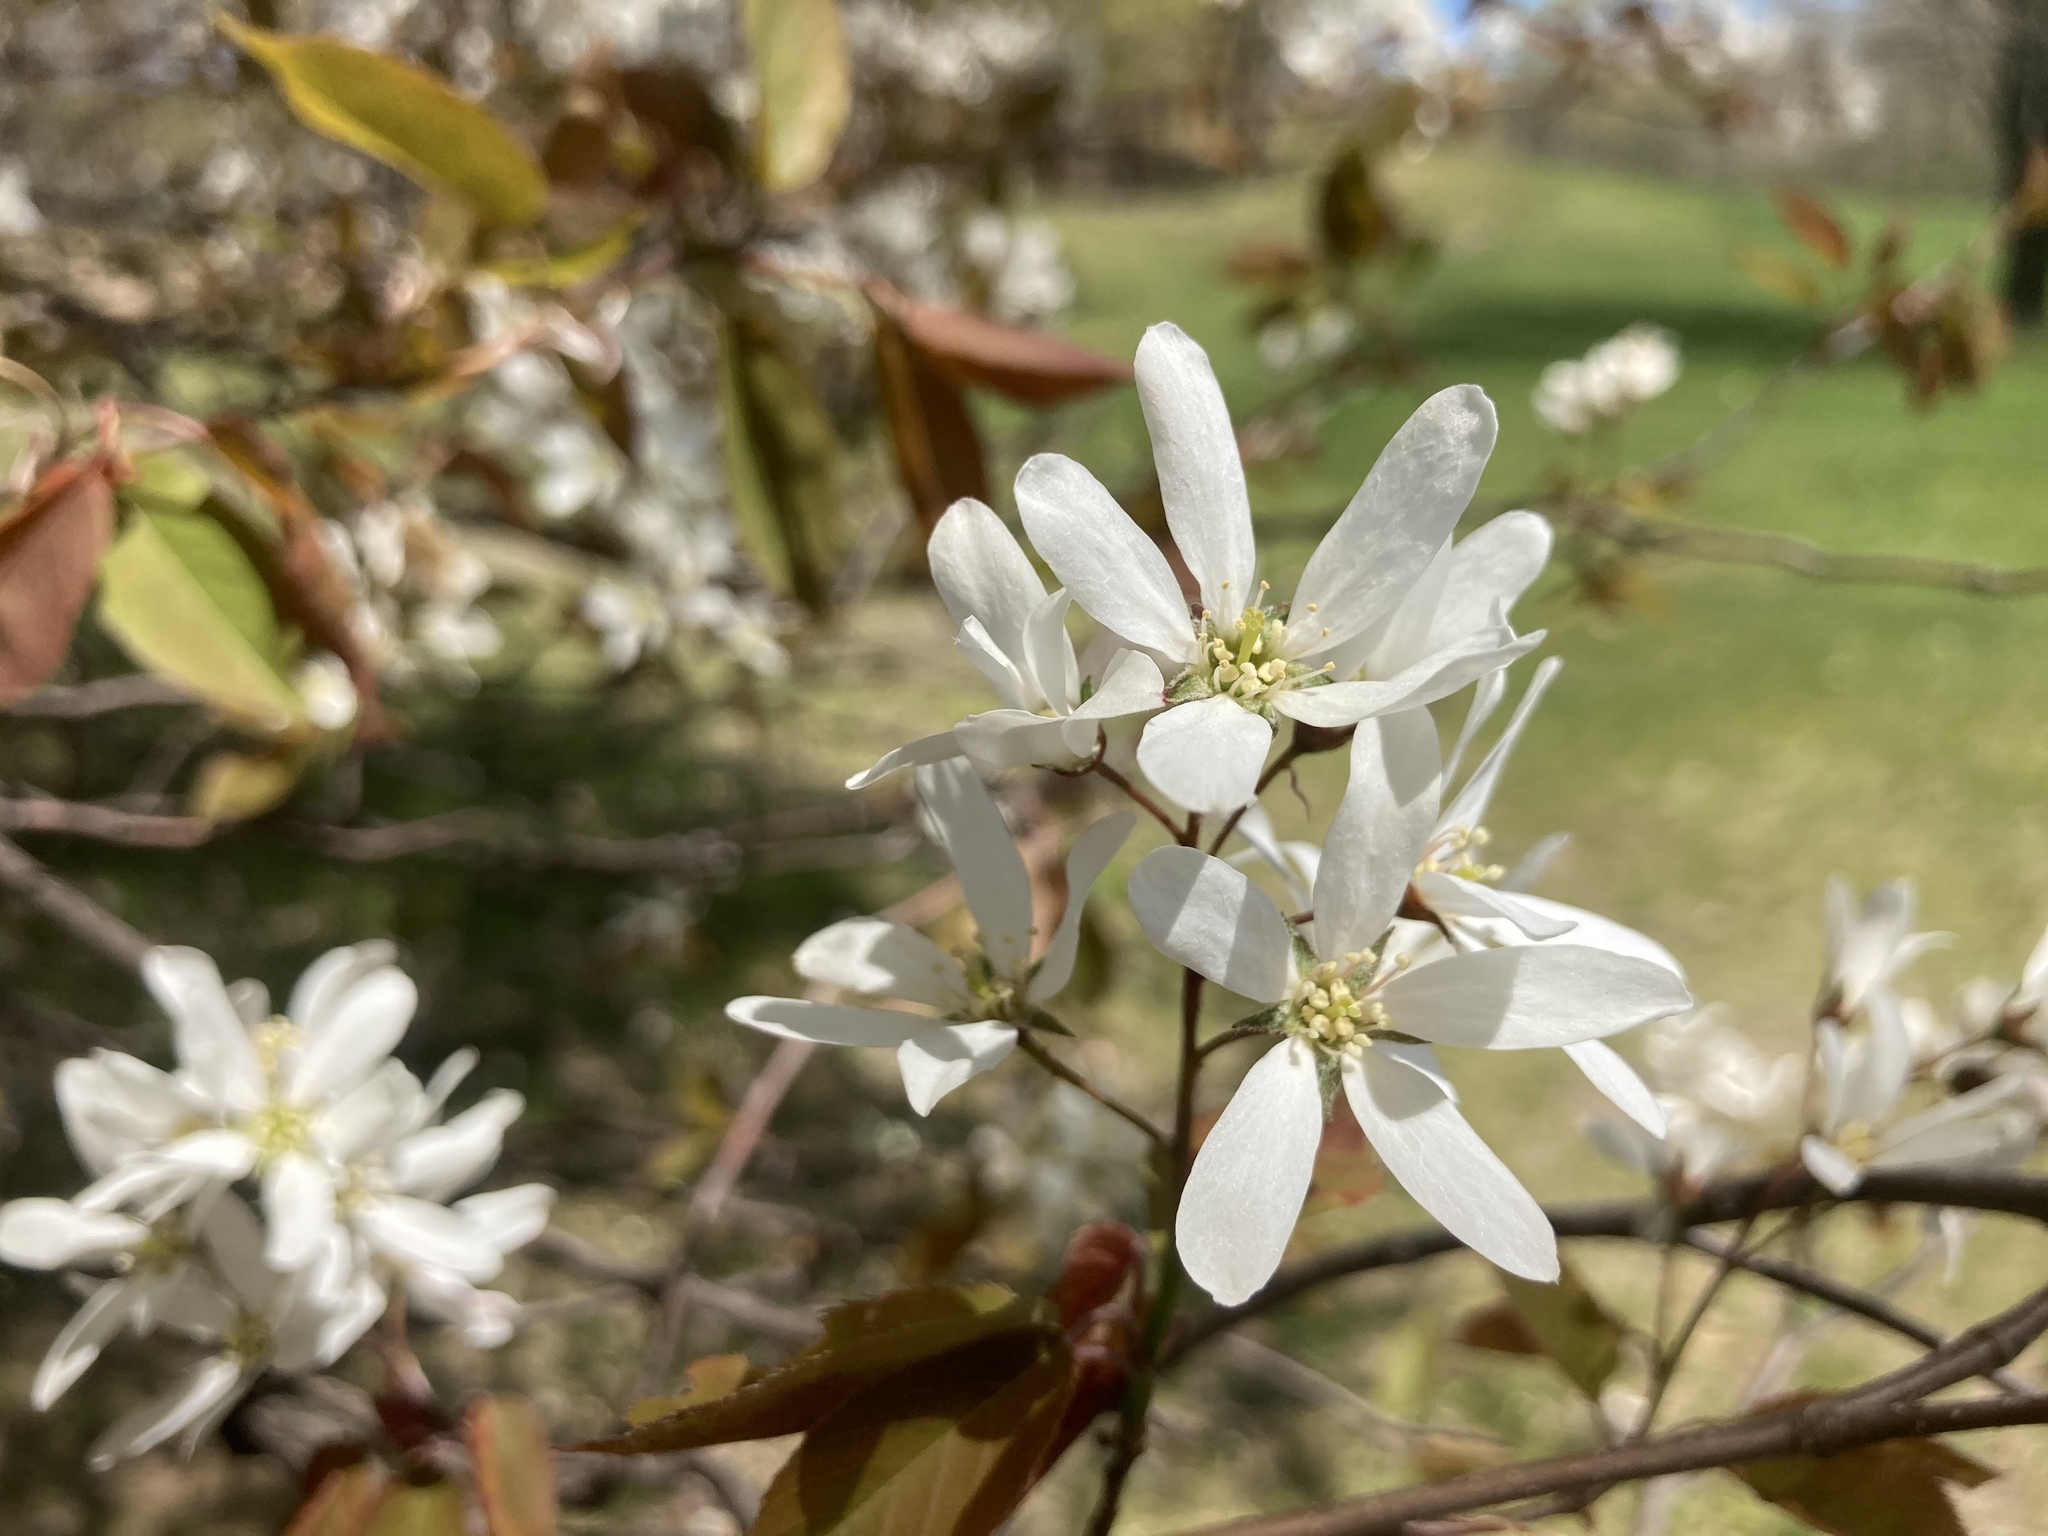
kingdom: Plantae
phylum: Tracheophyta
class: Magnoliopsida
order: Rosales
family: Rosaceae
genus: Amelanchier
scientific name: Amelanchier laevis
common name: Allegheny serviceberry
